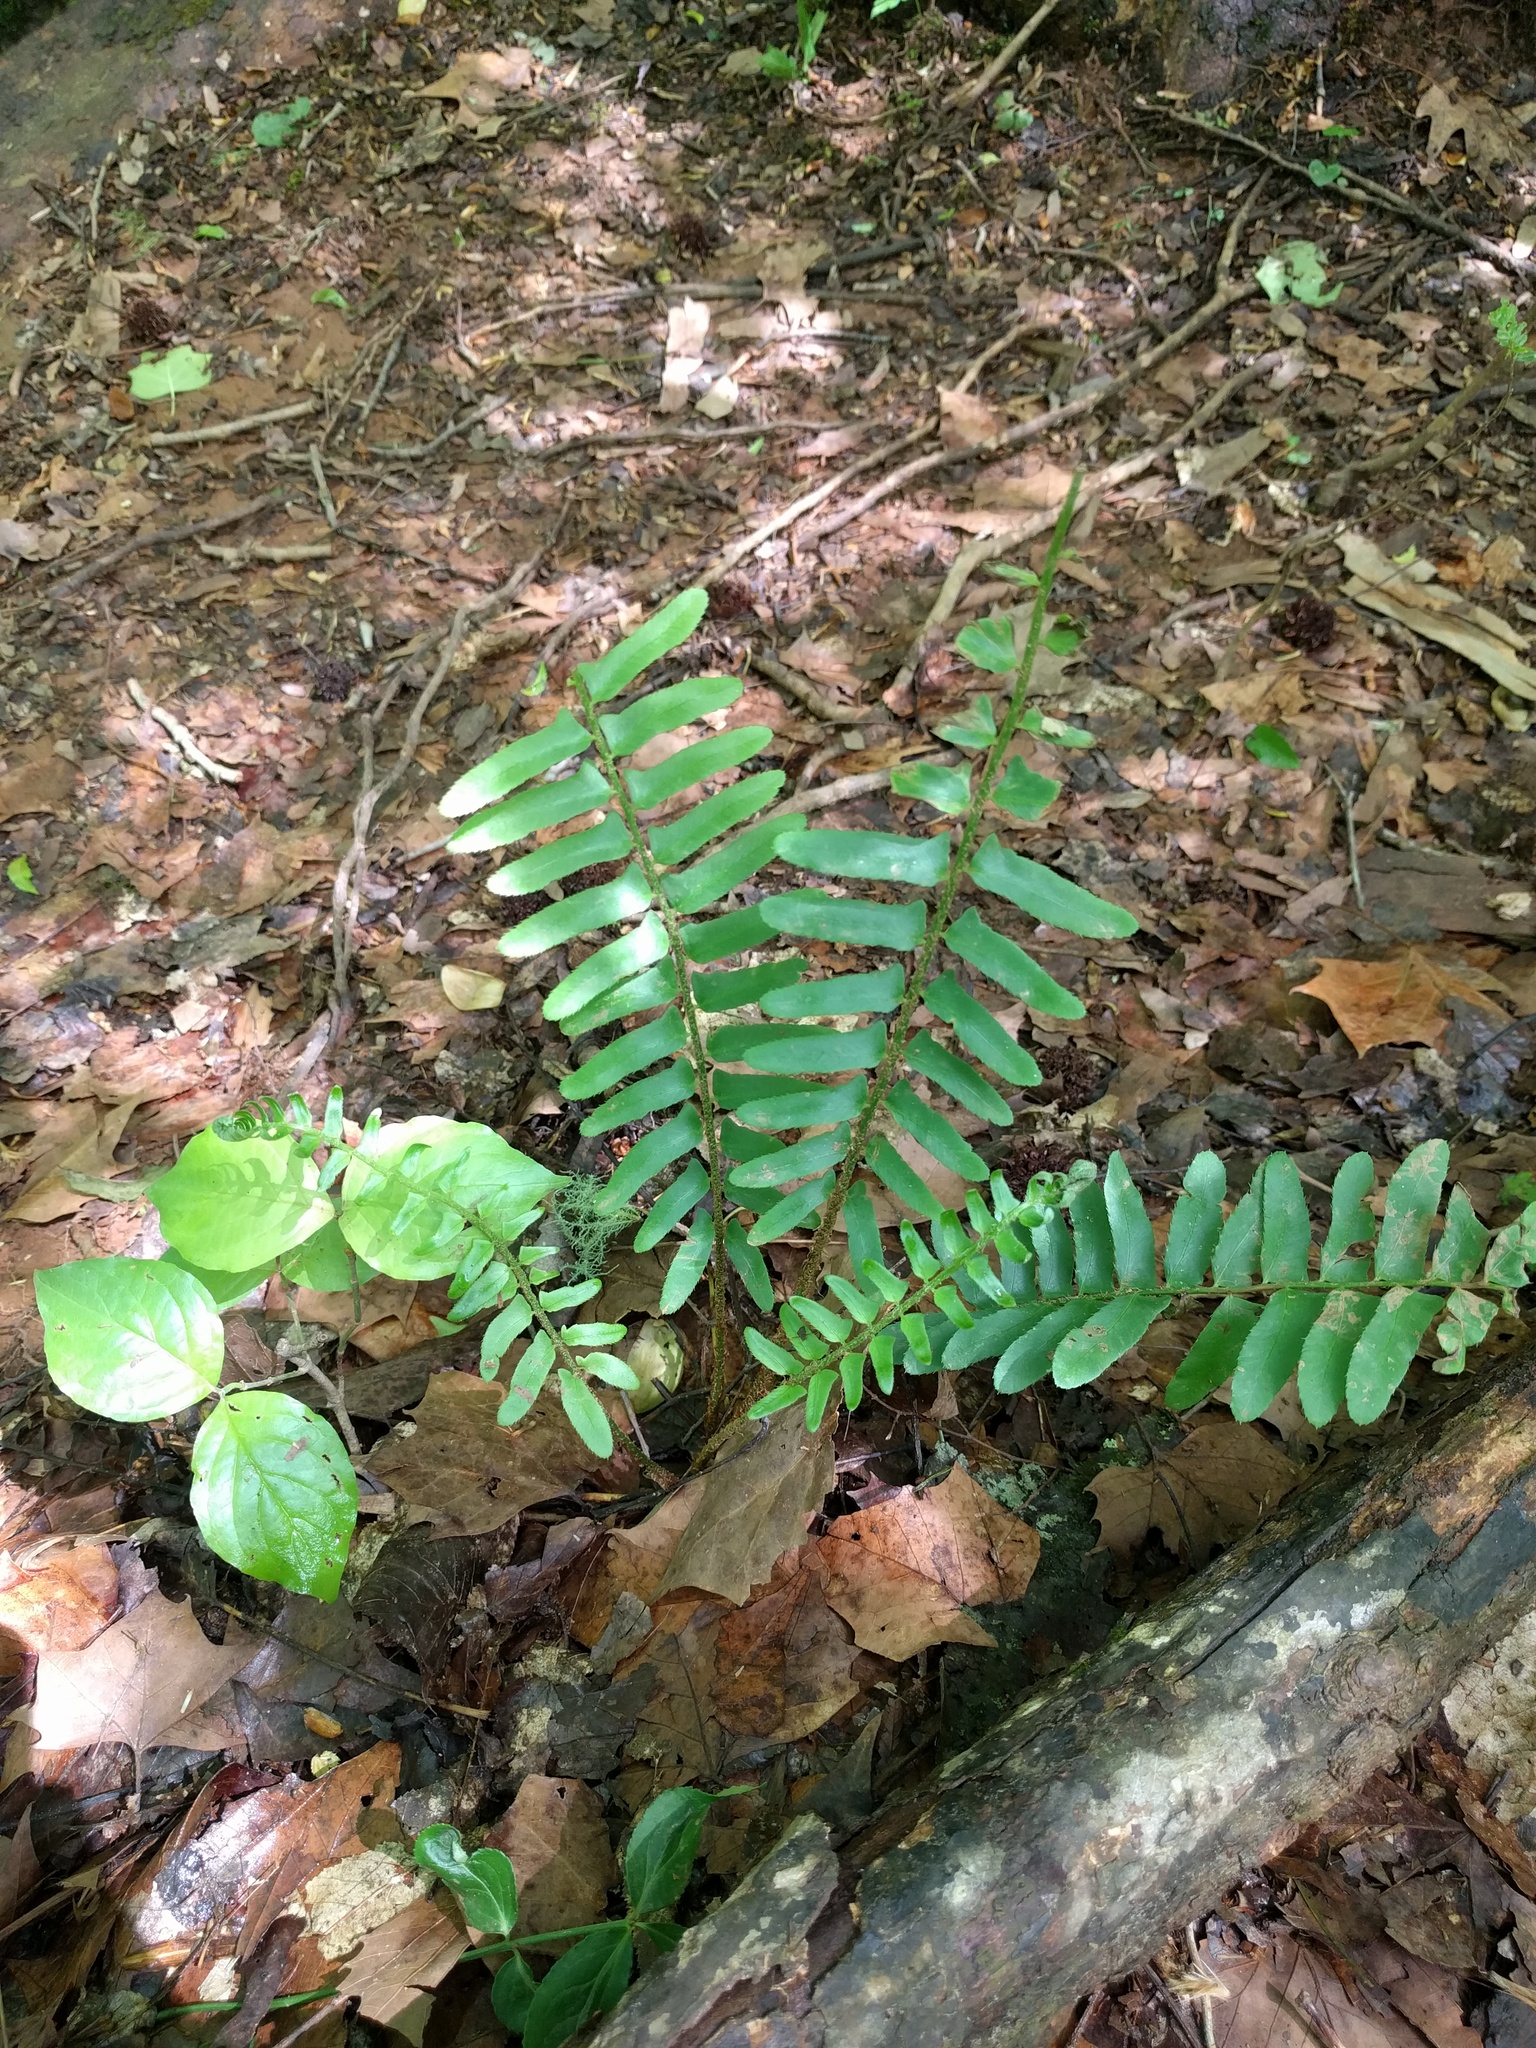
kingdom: Plantae
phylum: Tracheophyta
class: Polypodiopsida
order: Polypodiales
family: Dryopteridaceae
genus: Polystichum
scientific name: Polystichum acrostichoides
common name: Christmas fern
